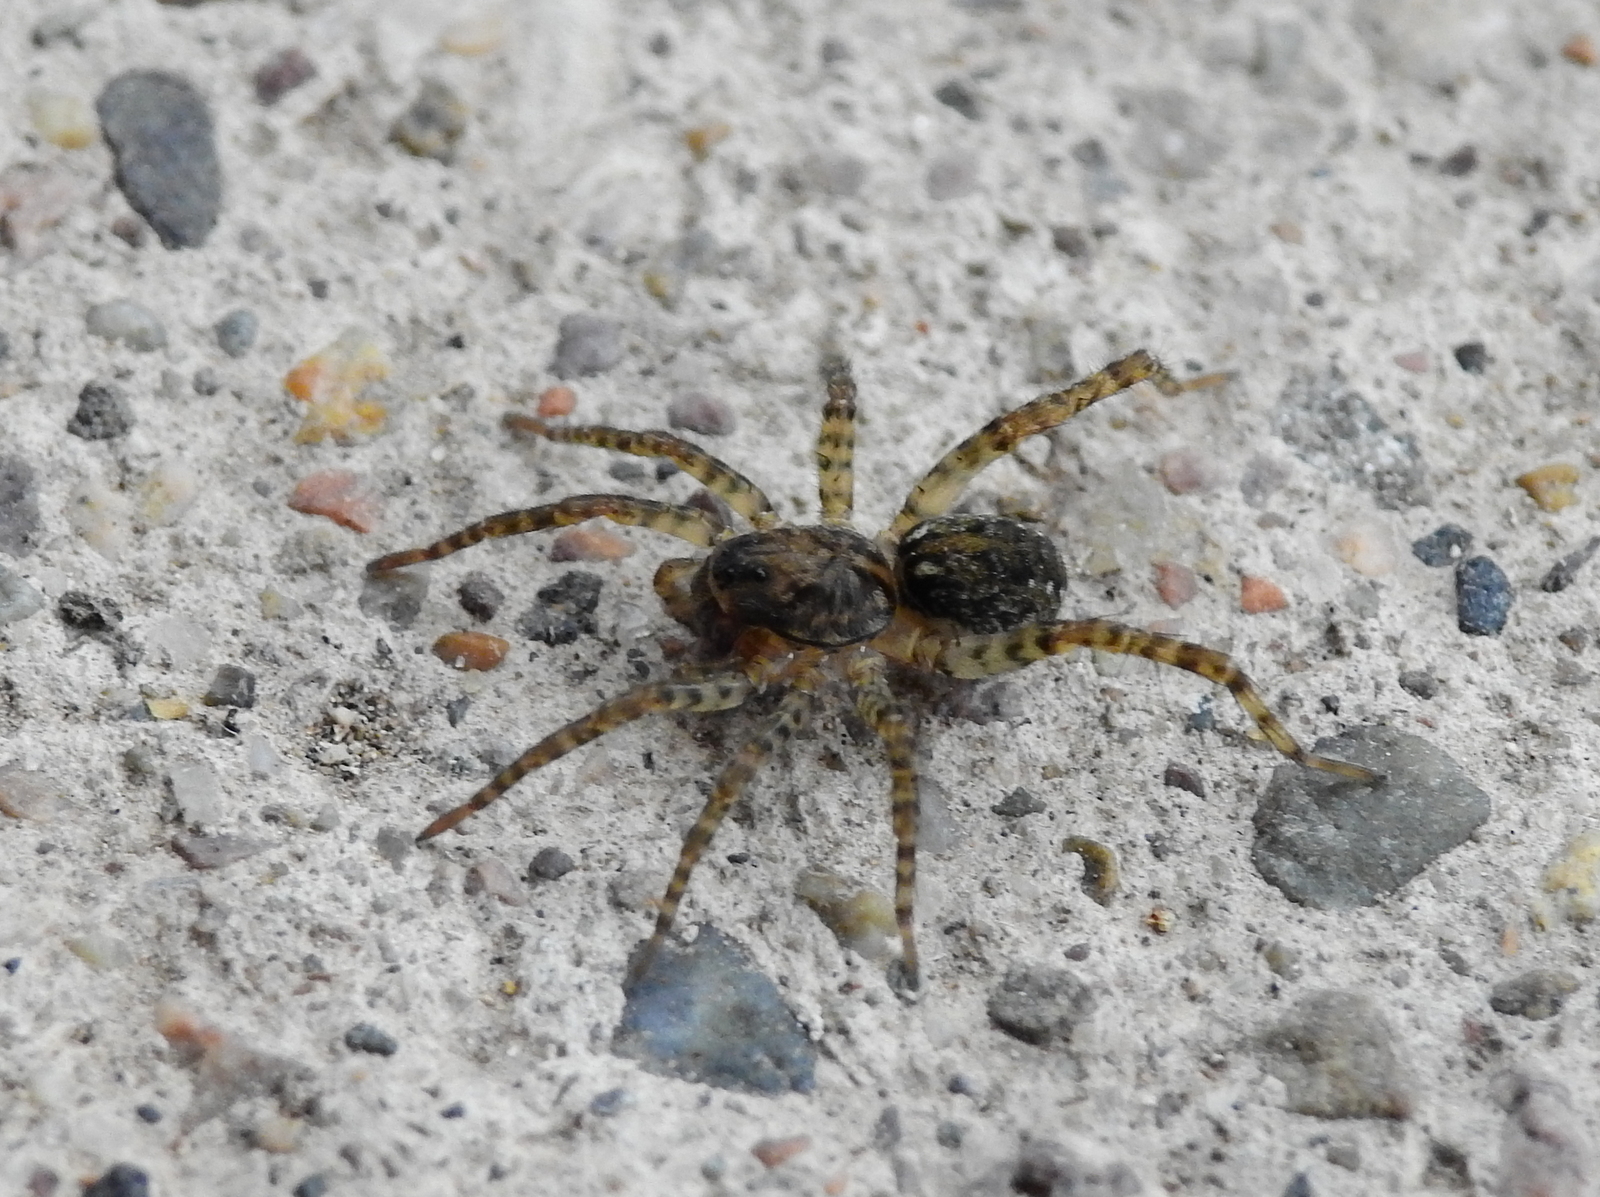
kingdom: Animalia
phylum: Arthropoda
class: Arachnida
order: Araneae
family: Lycosidae
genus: Paratrochosina
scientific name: Paratrochosina amica
